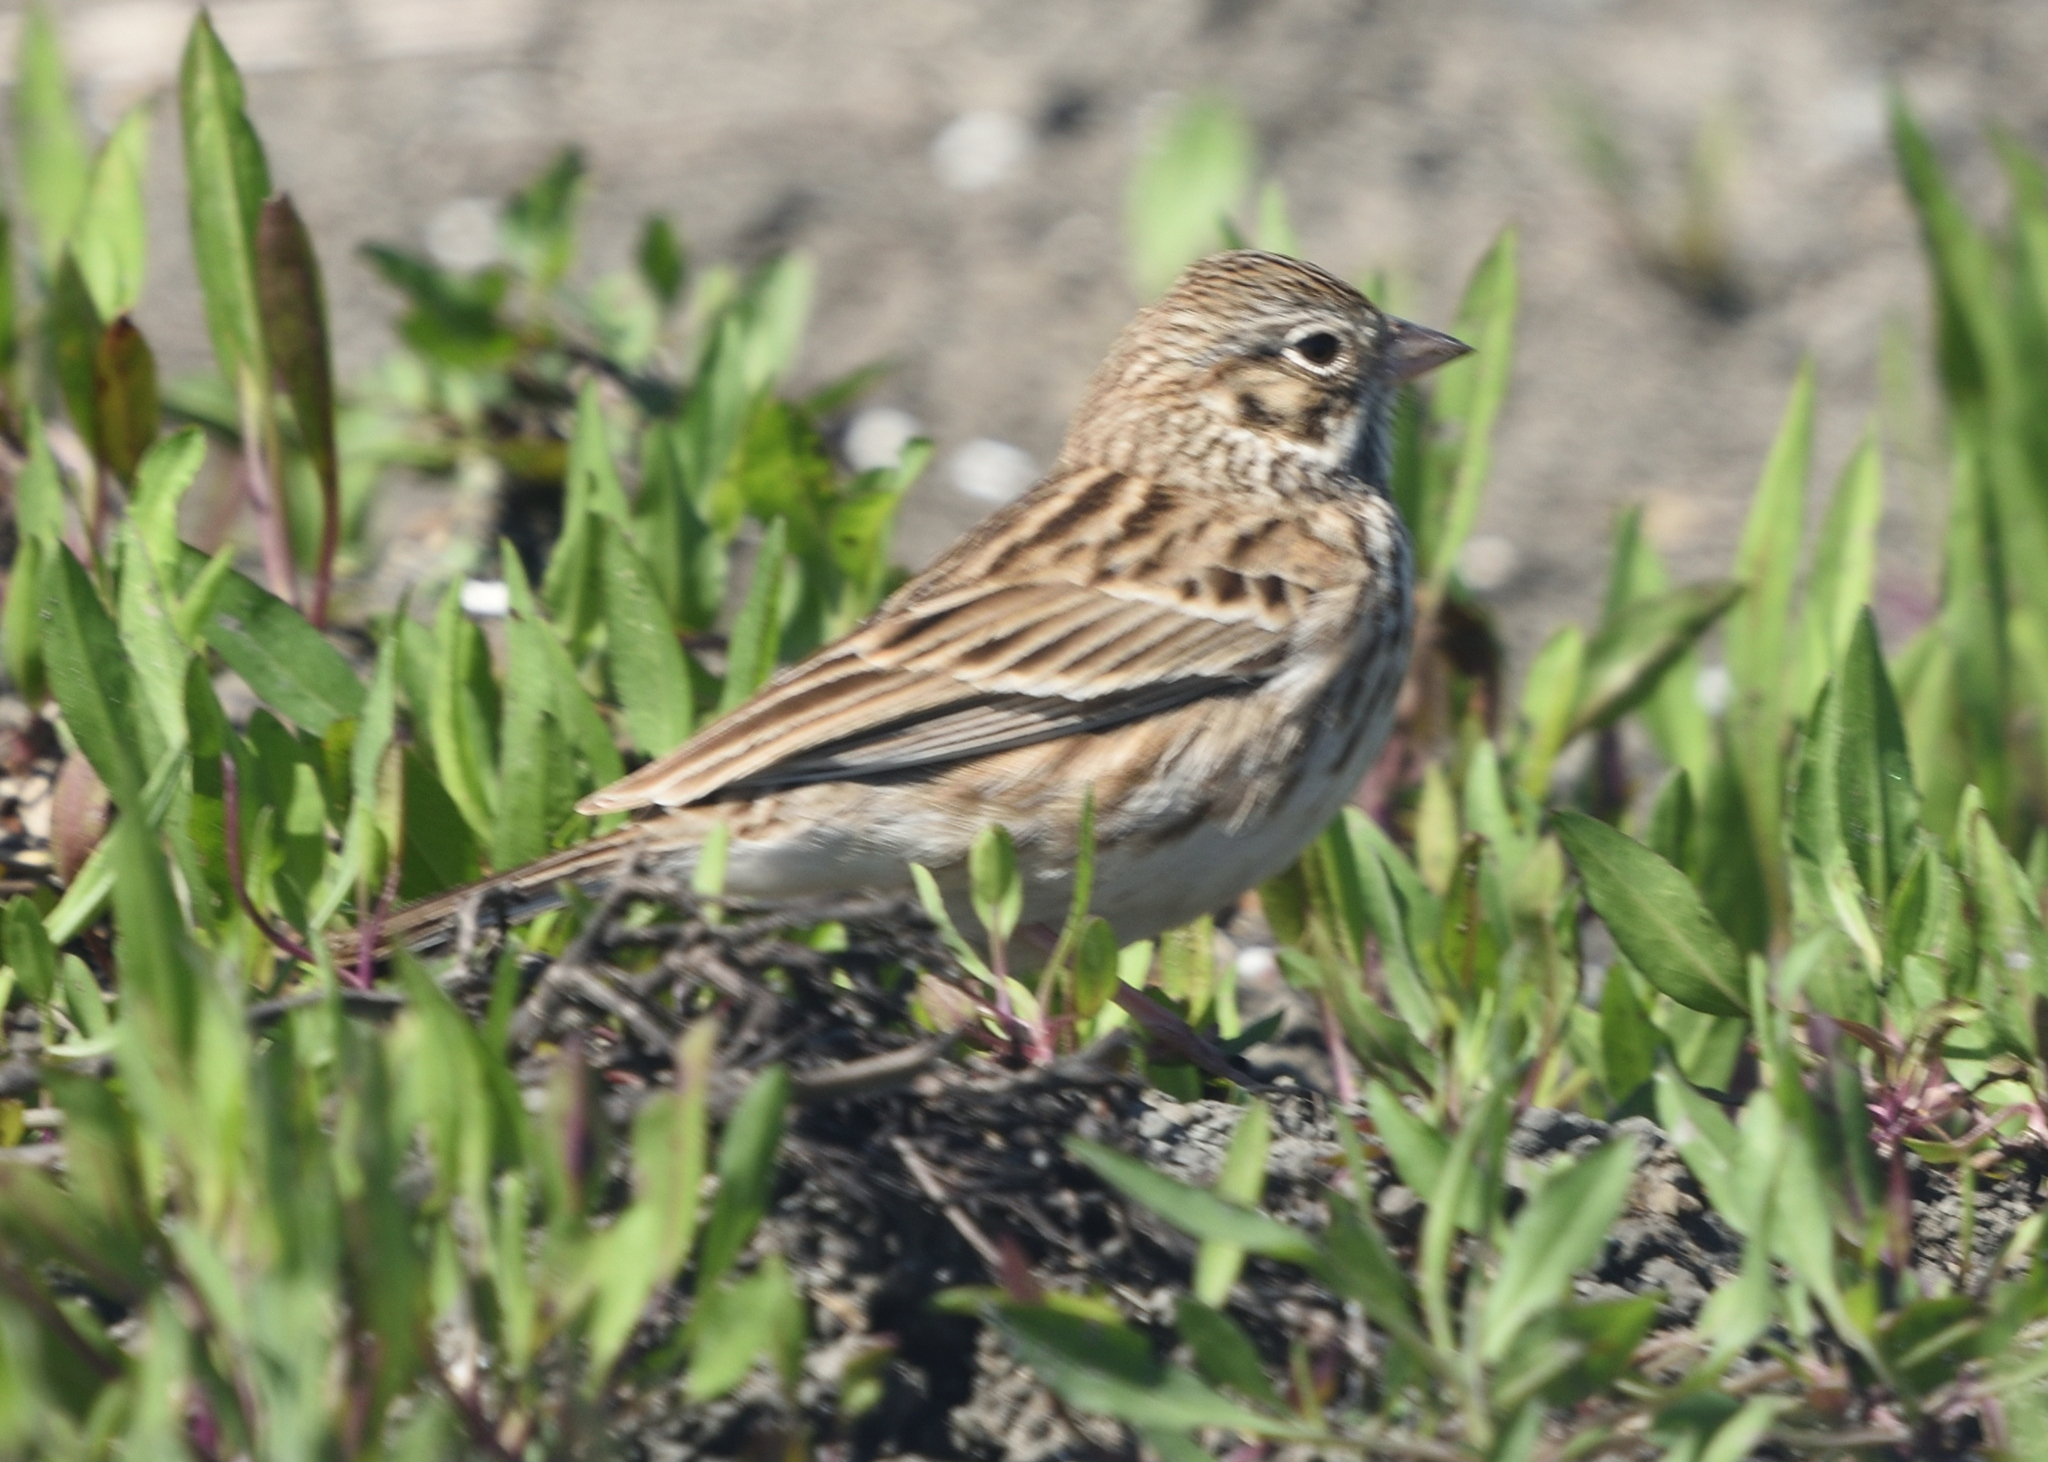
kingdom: Animalia
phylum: Chordata
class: Aves
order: Passeriformes
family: Passerellidae
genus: Pooecetes
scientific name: Pooecetes gramineus
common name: Vesper sparrow
